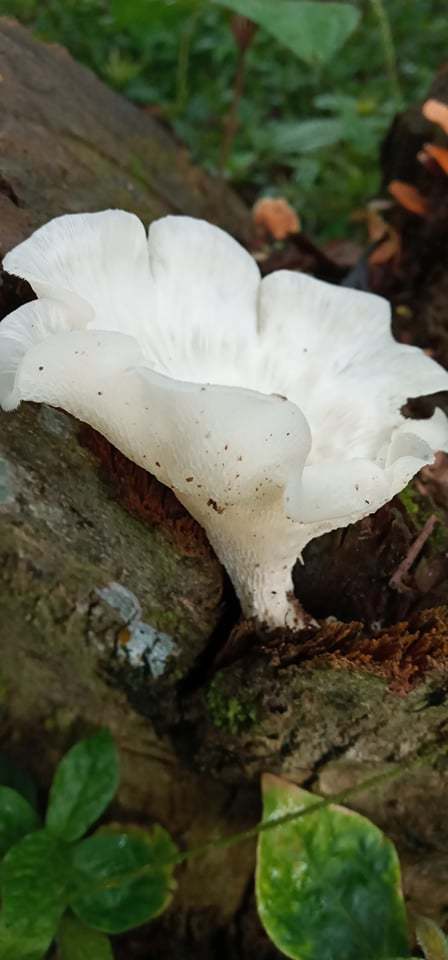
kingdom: Fungi
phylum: Basidiomycota
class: Agaricomycetes
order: Polyporales
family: Polyporaceae
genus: Favolus
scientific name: Favolus tenuiculus
